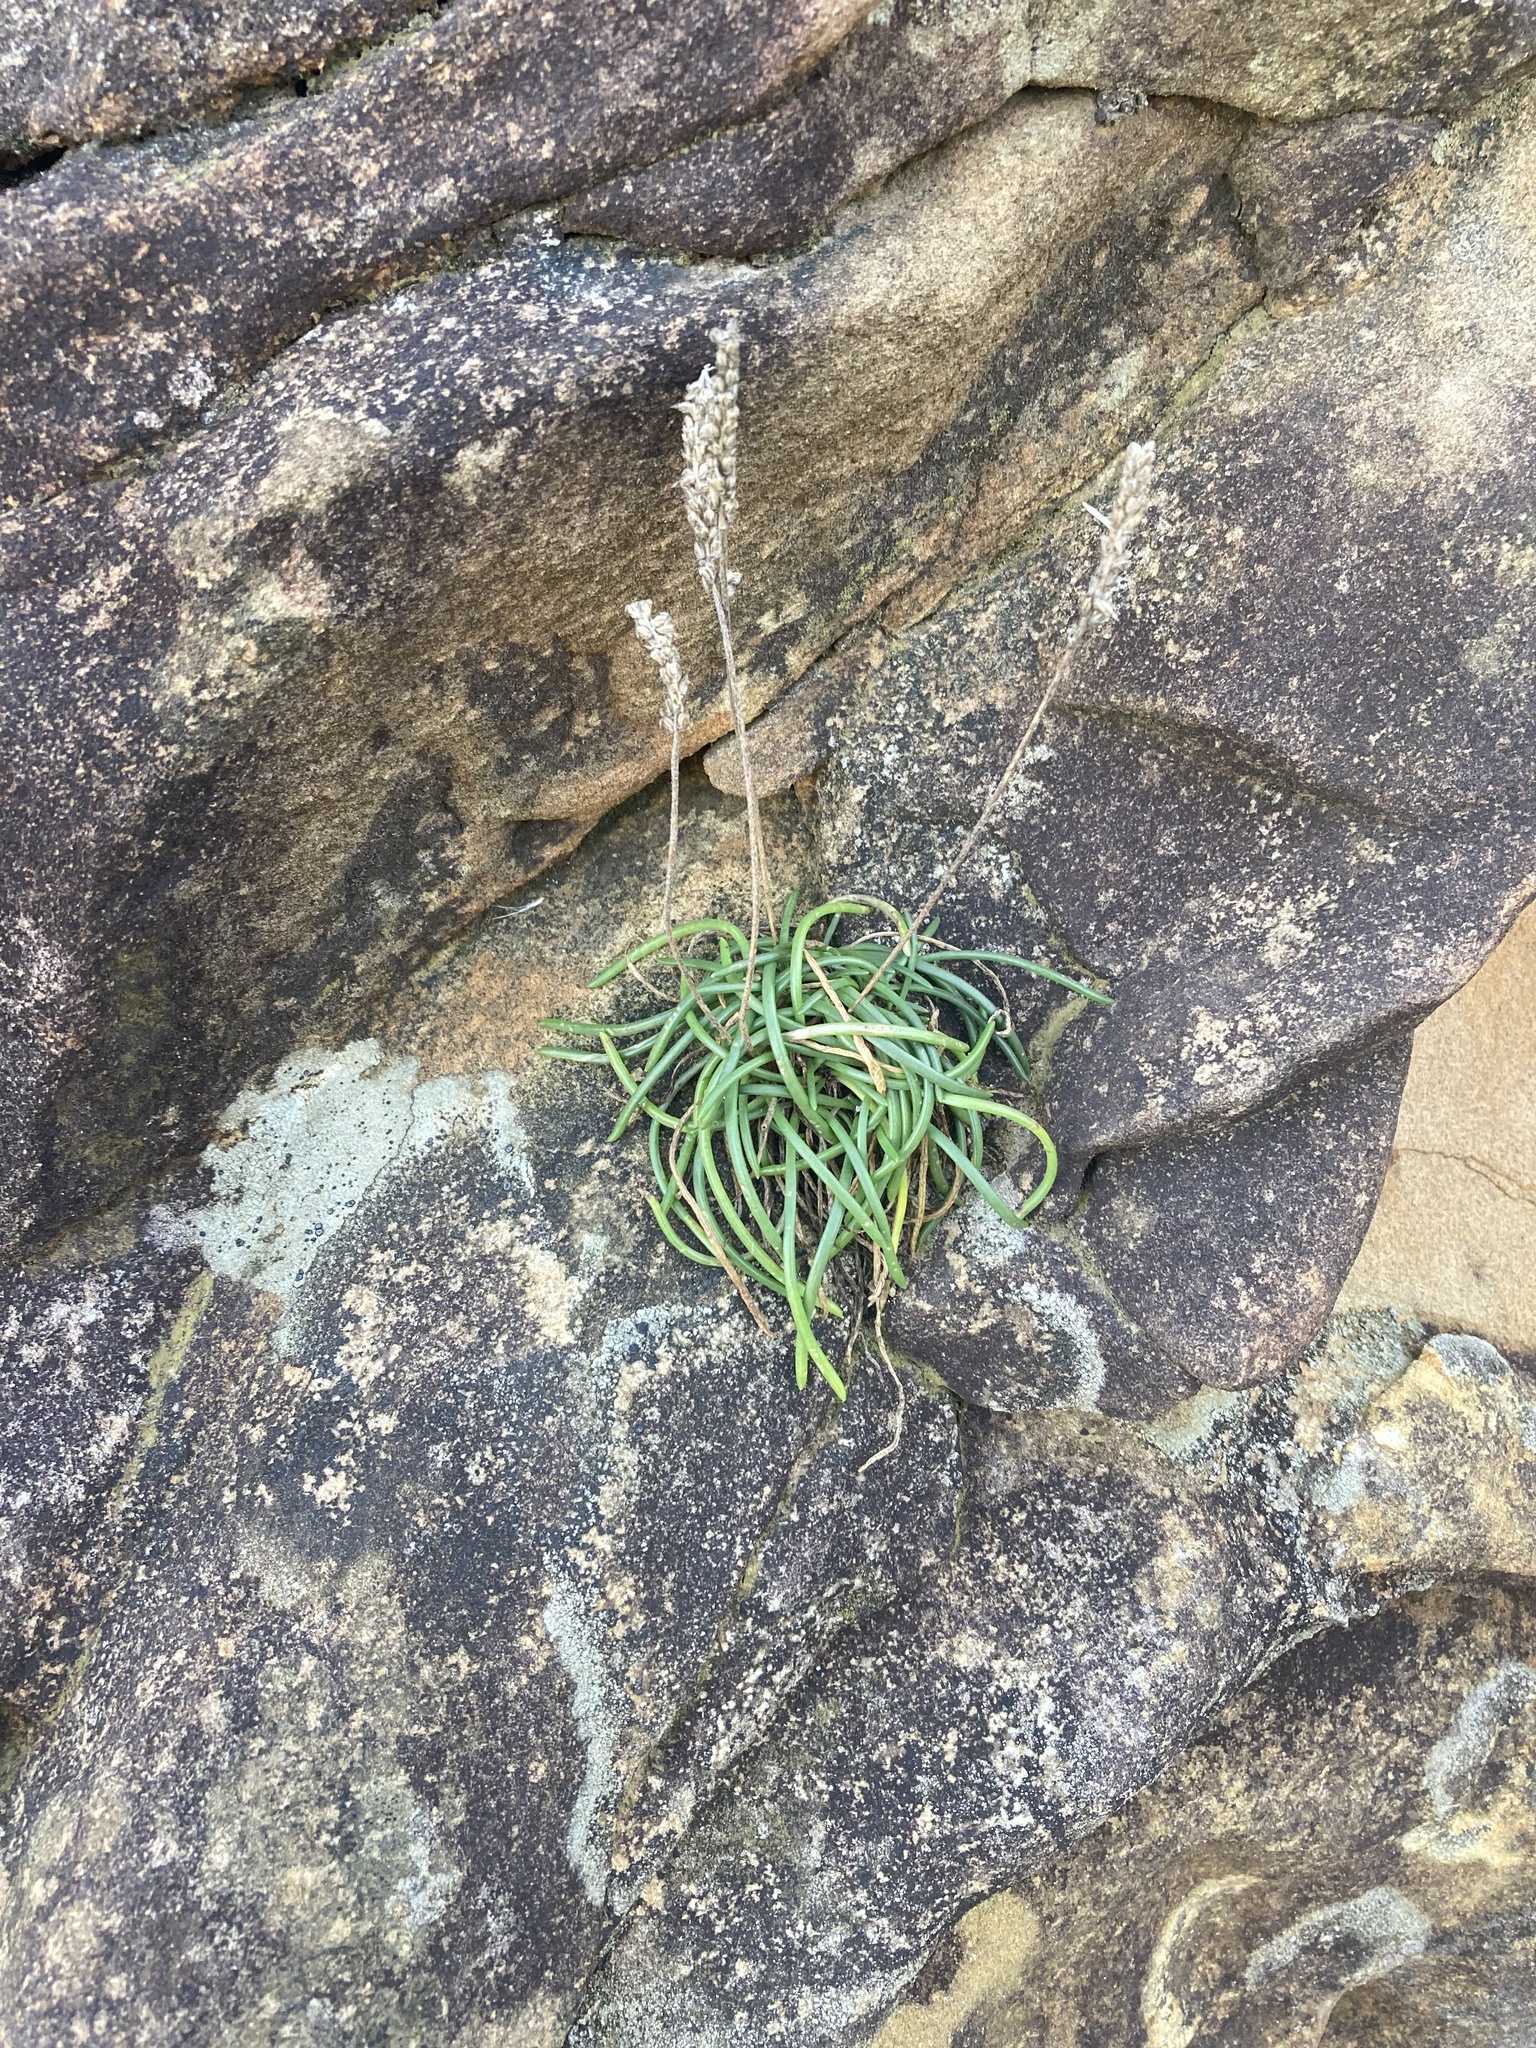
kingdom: Plantae
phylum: Tracheophyta
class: Magnoliopsida
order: Lamiales
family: Plantaginaceae
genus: Plantago
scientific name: Plantago maritima
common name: Sea plantain
